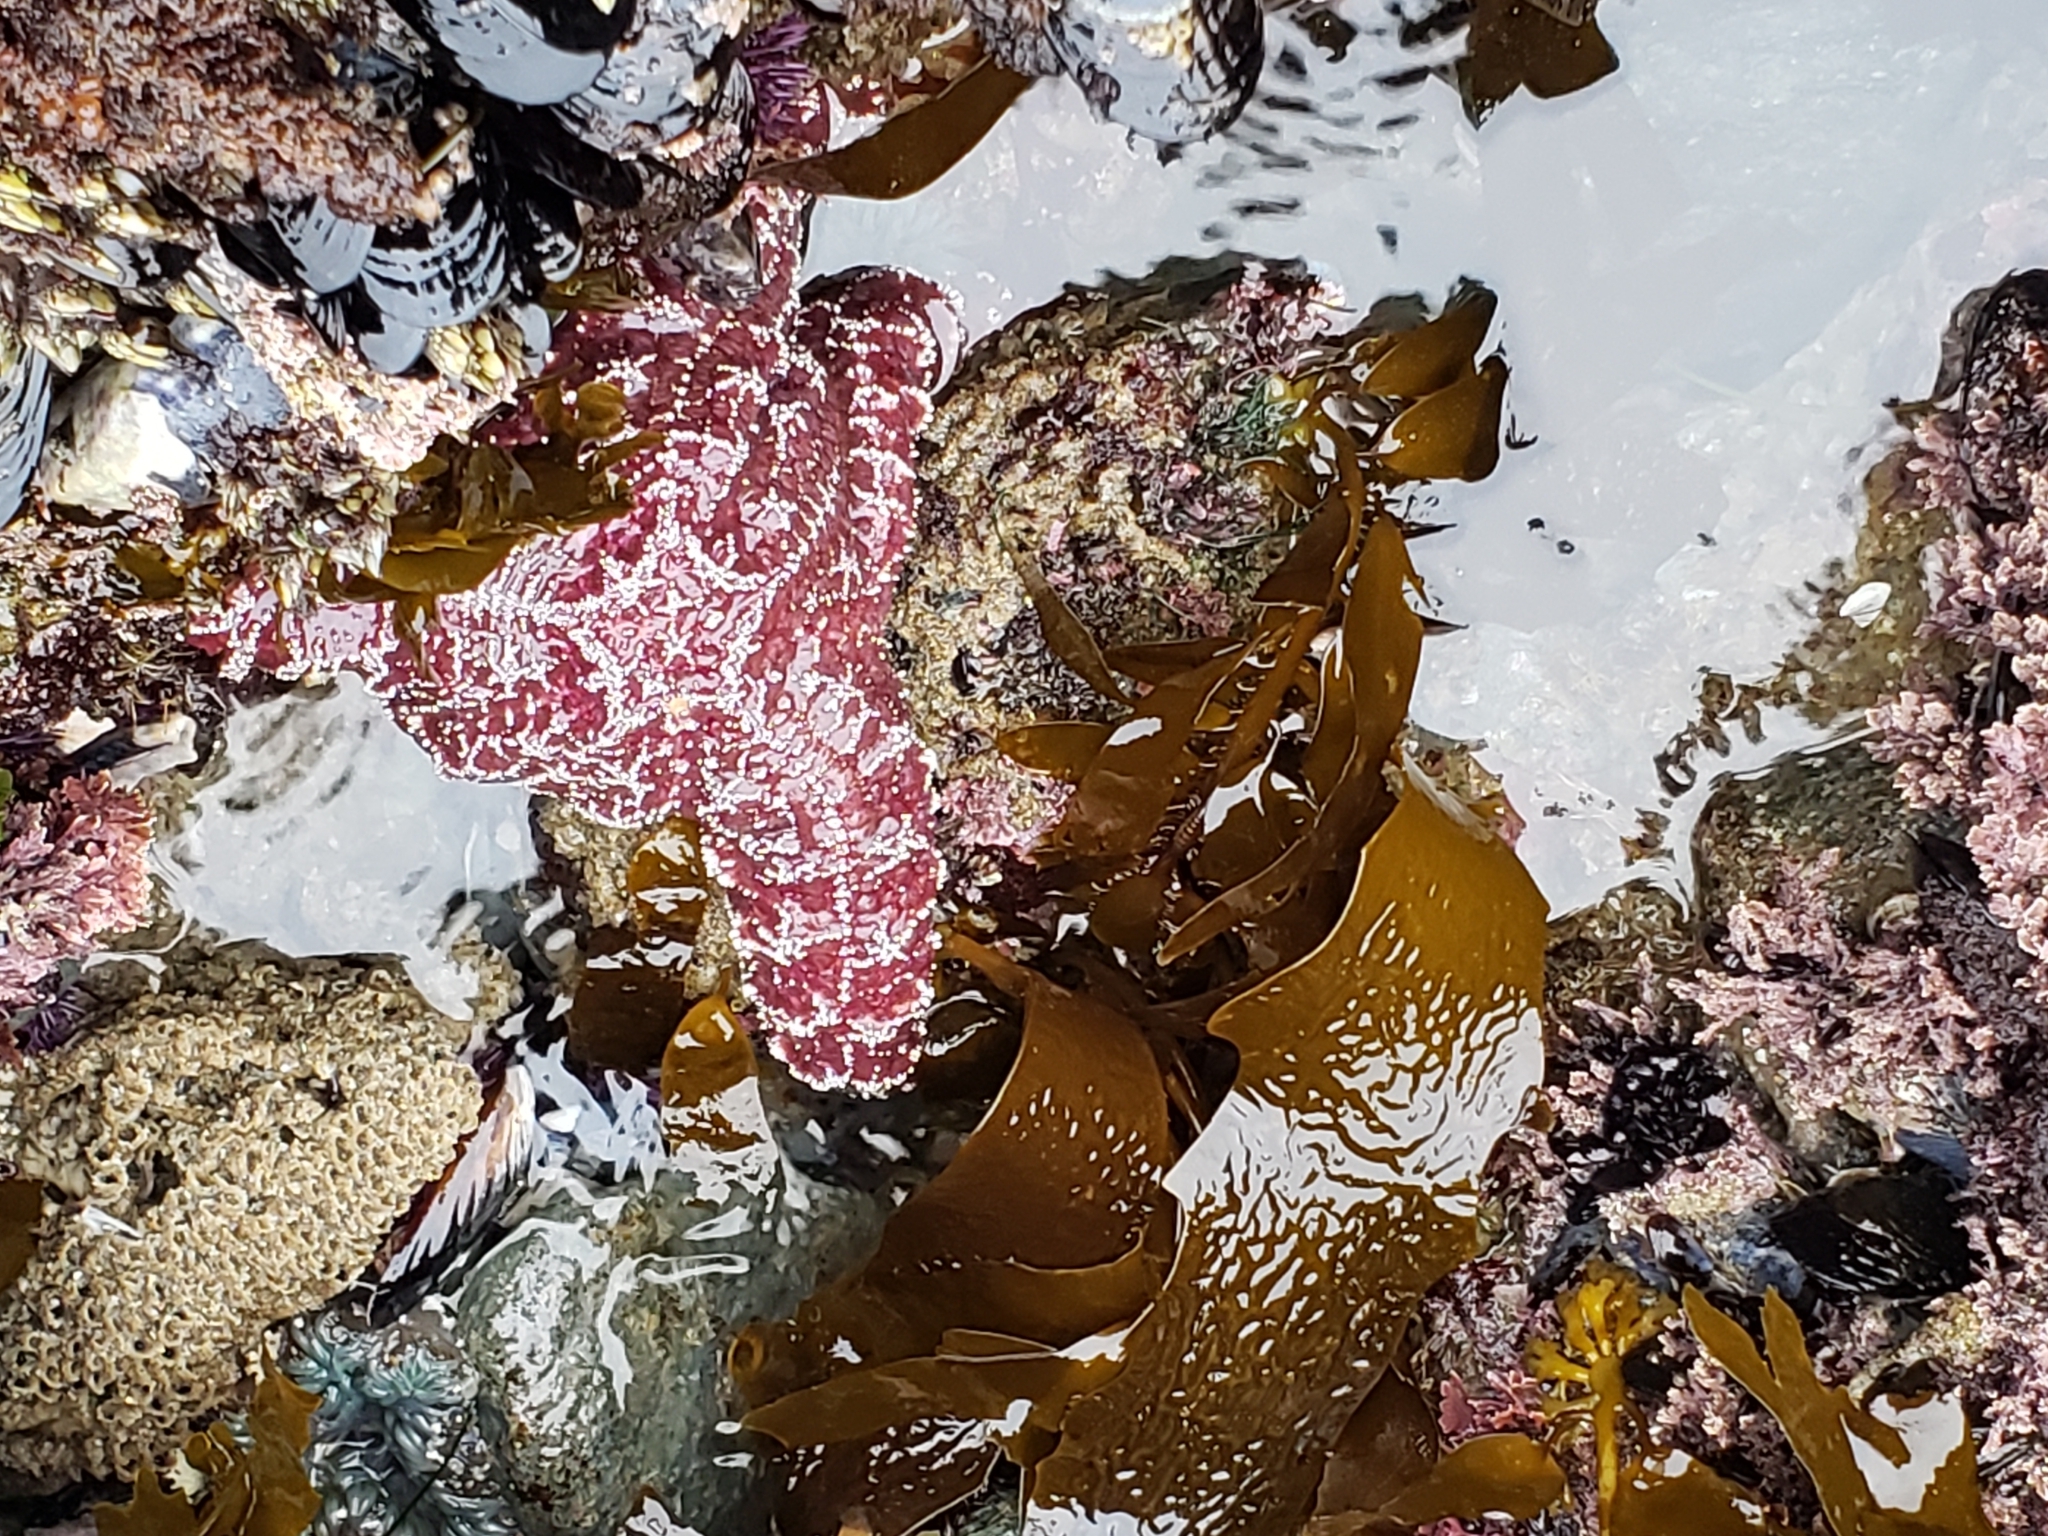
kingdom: Animalia
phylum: Echinodermata
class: Asteroidea
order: Forcipulatida
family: Asteriidae
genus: Pisaster
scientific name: Pisaster ochraceus
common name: Ochre stars
